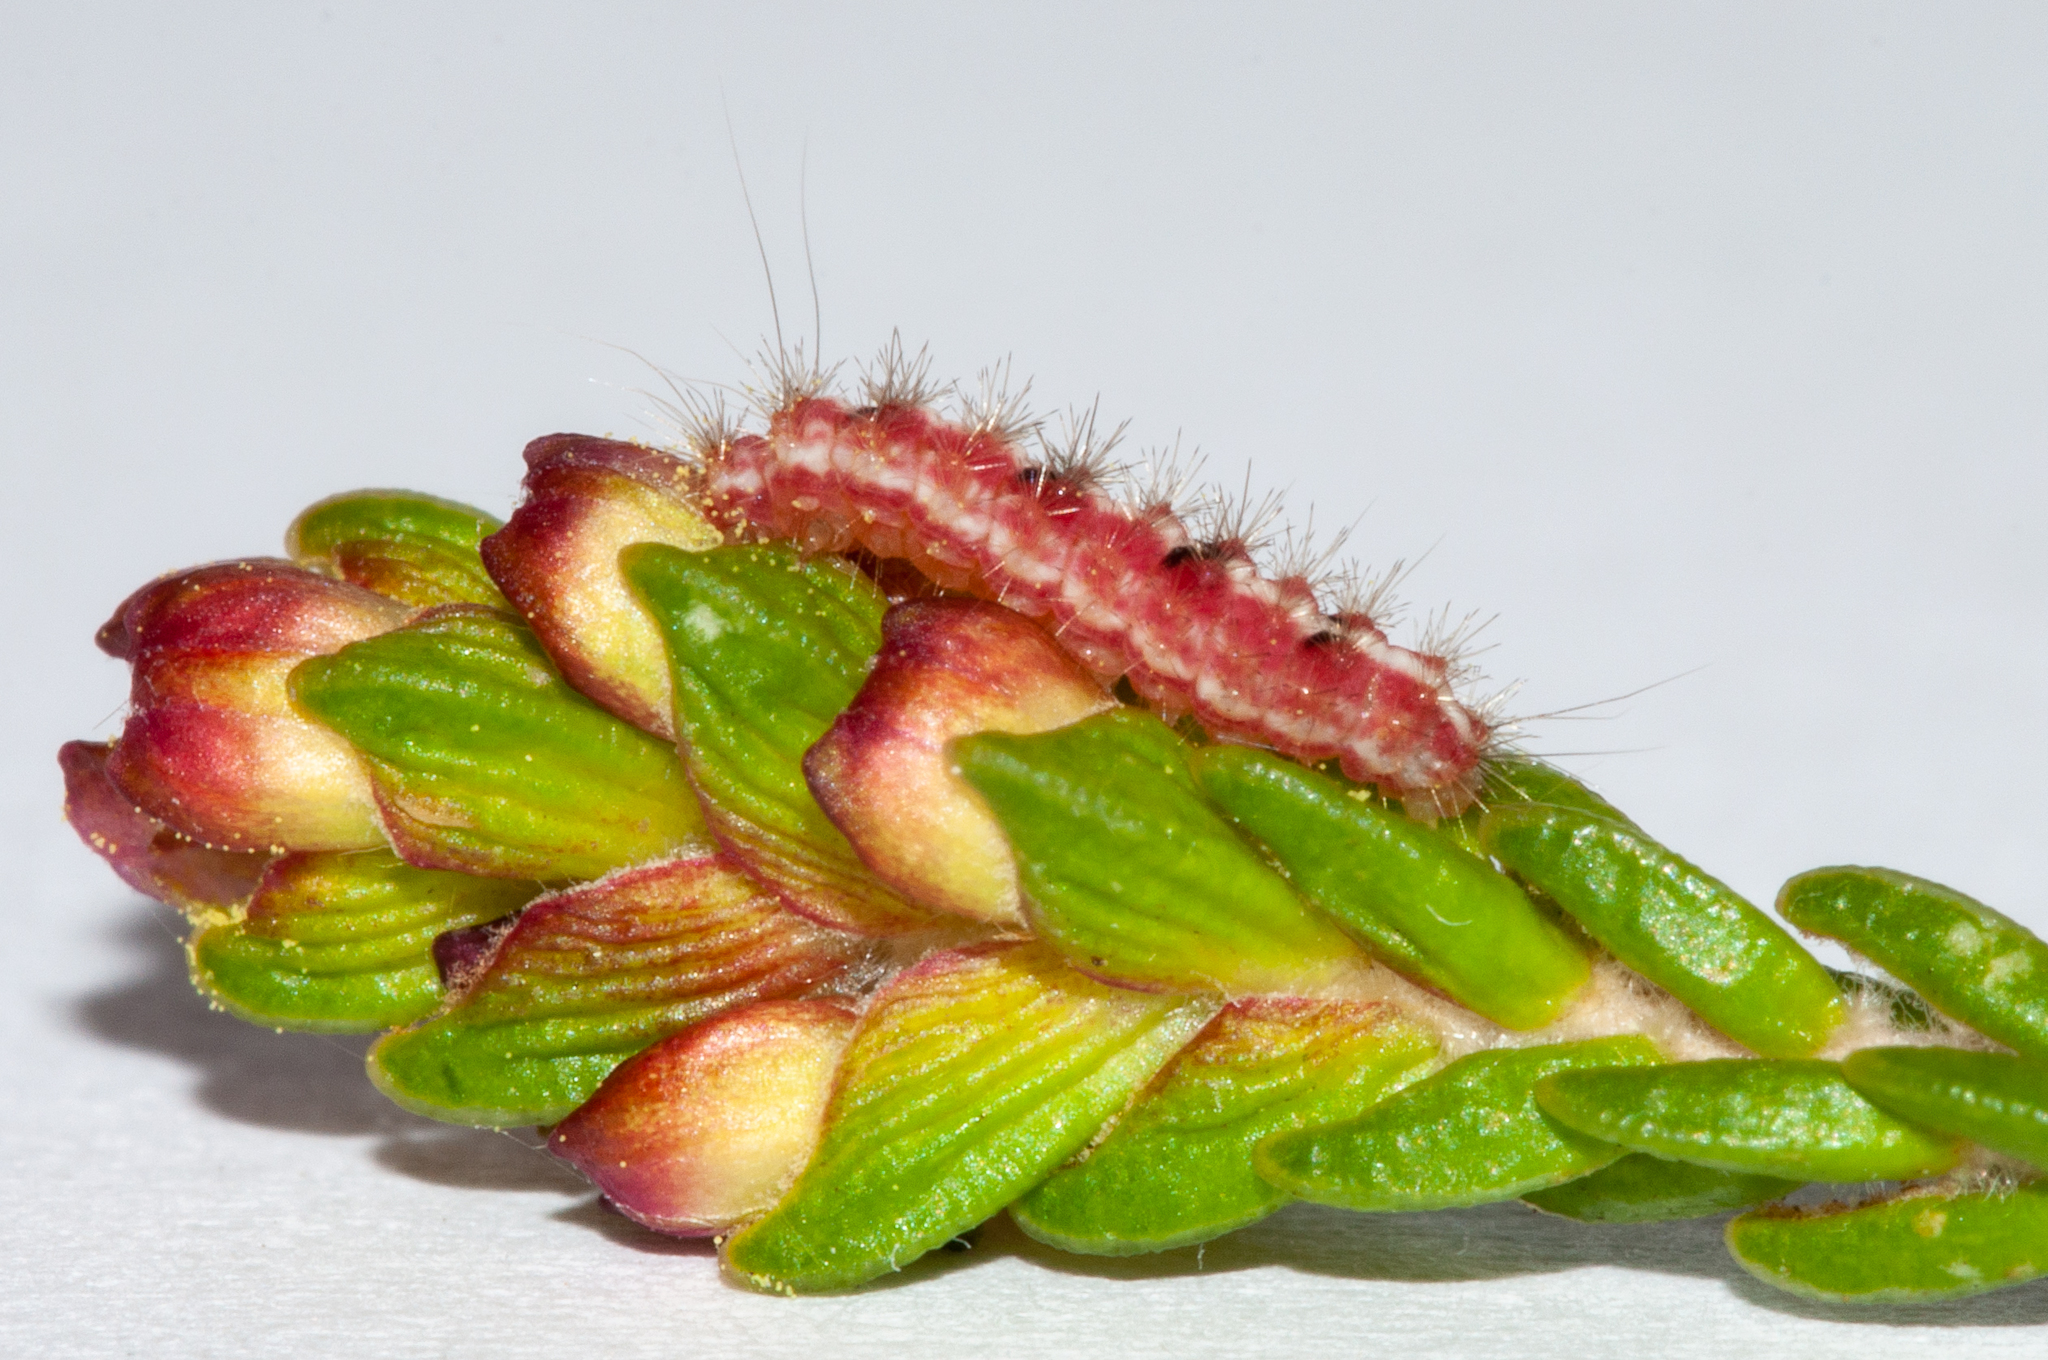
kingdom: Animalia
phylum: Arthropoda
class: Insecta
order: Lepidoptera
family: Nolidae
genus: Nolidia
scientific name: Nolidia unipuncta
